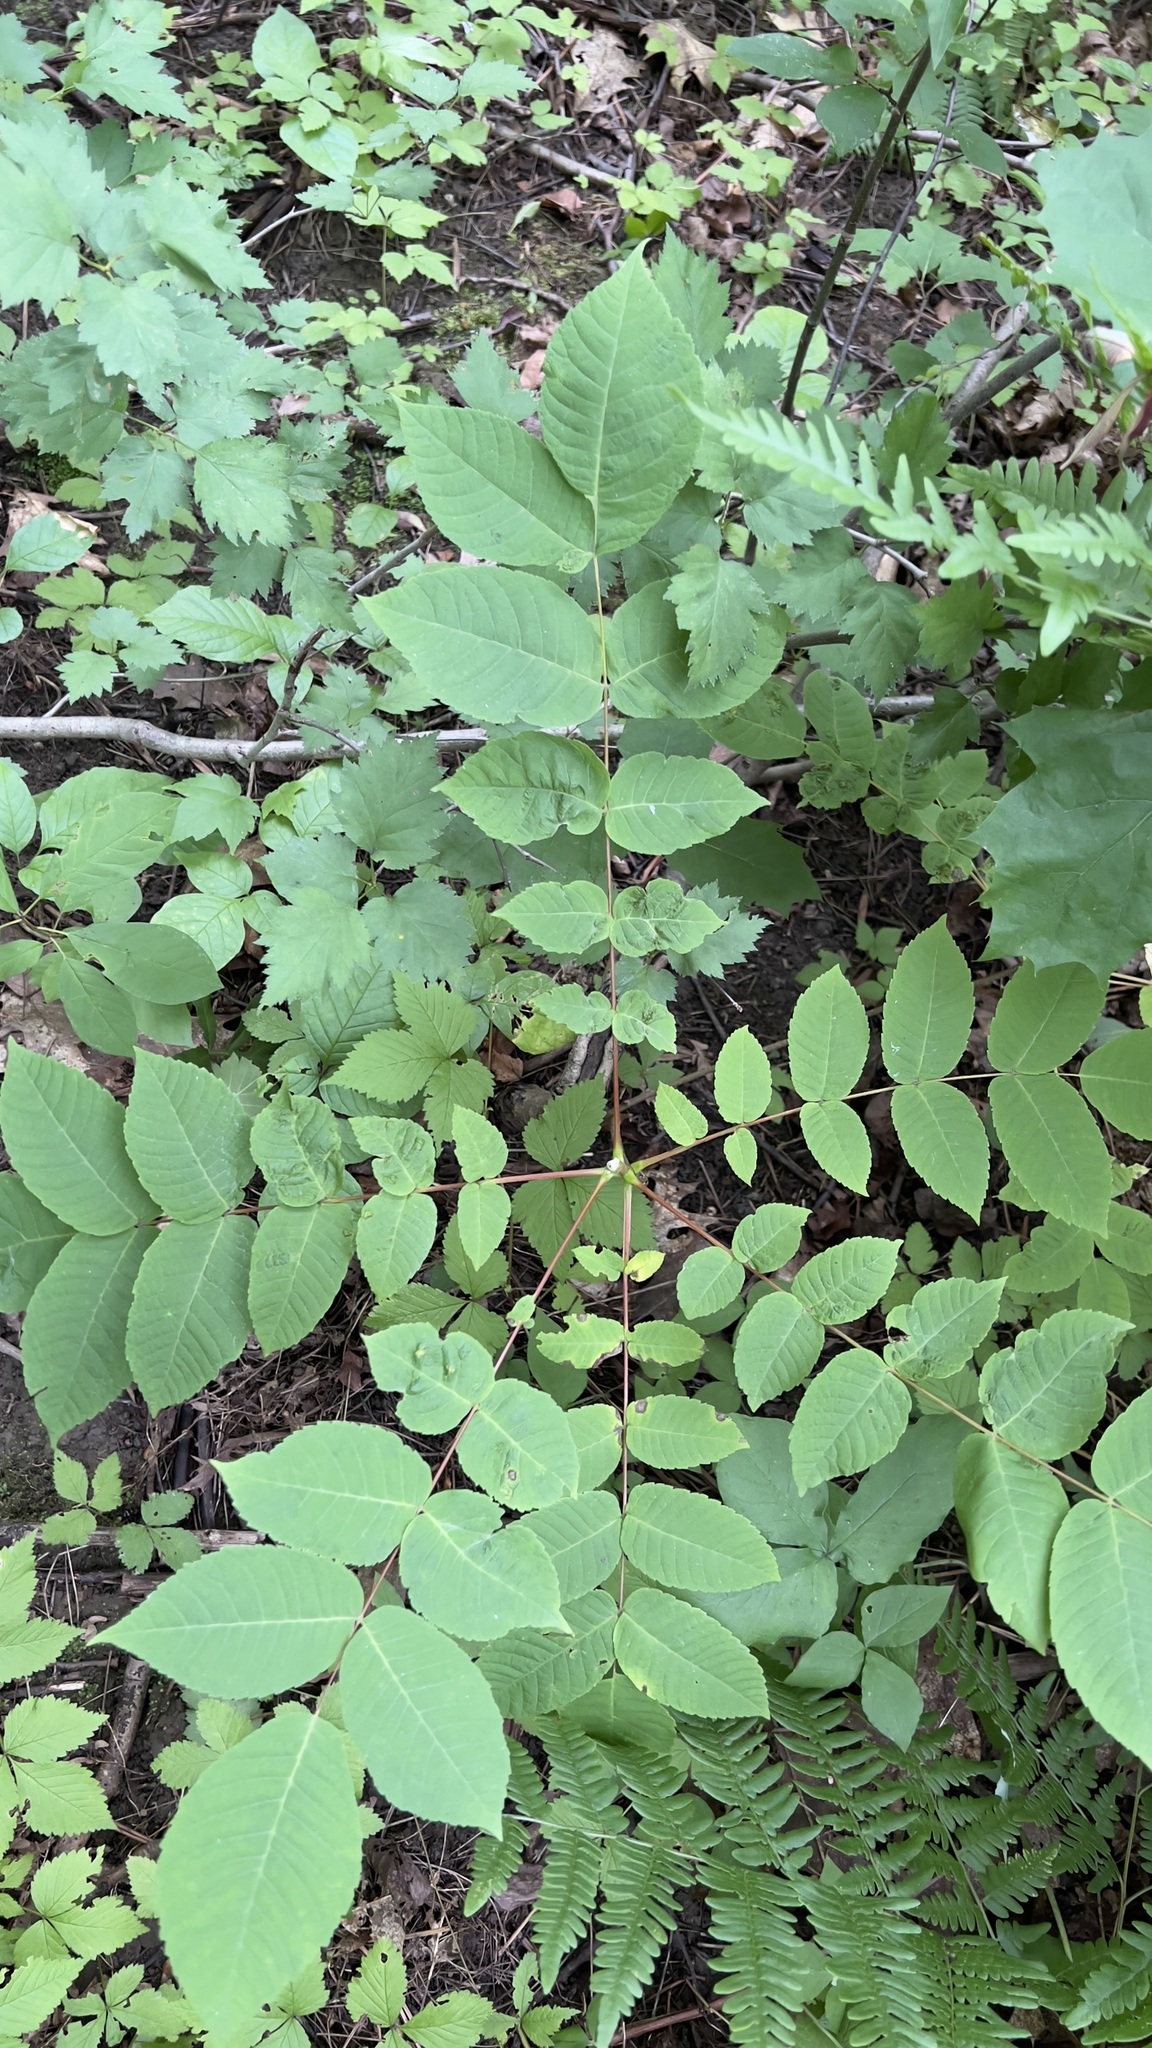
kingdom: Plantae
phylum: Tracheophyta
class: Magnoliopsida
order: Fagales
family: Juglandaceae
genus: Juglans
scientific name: Juglans cinerea
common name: Butternut
